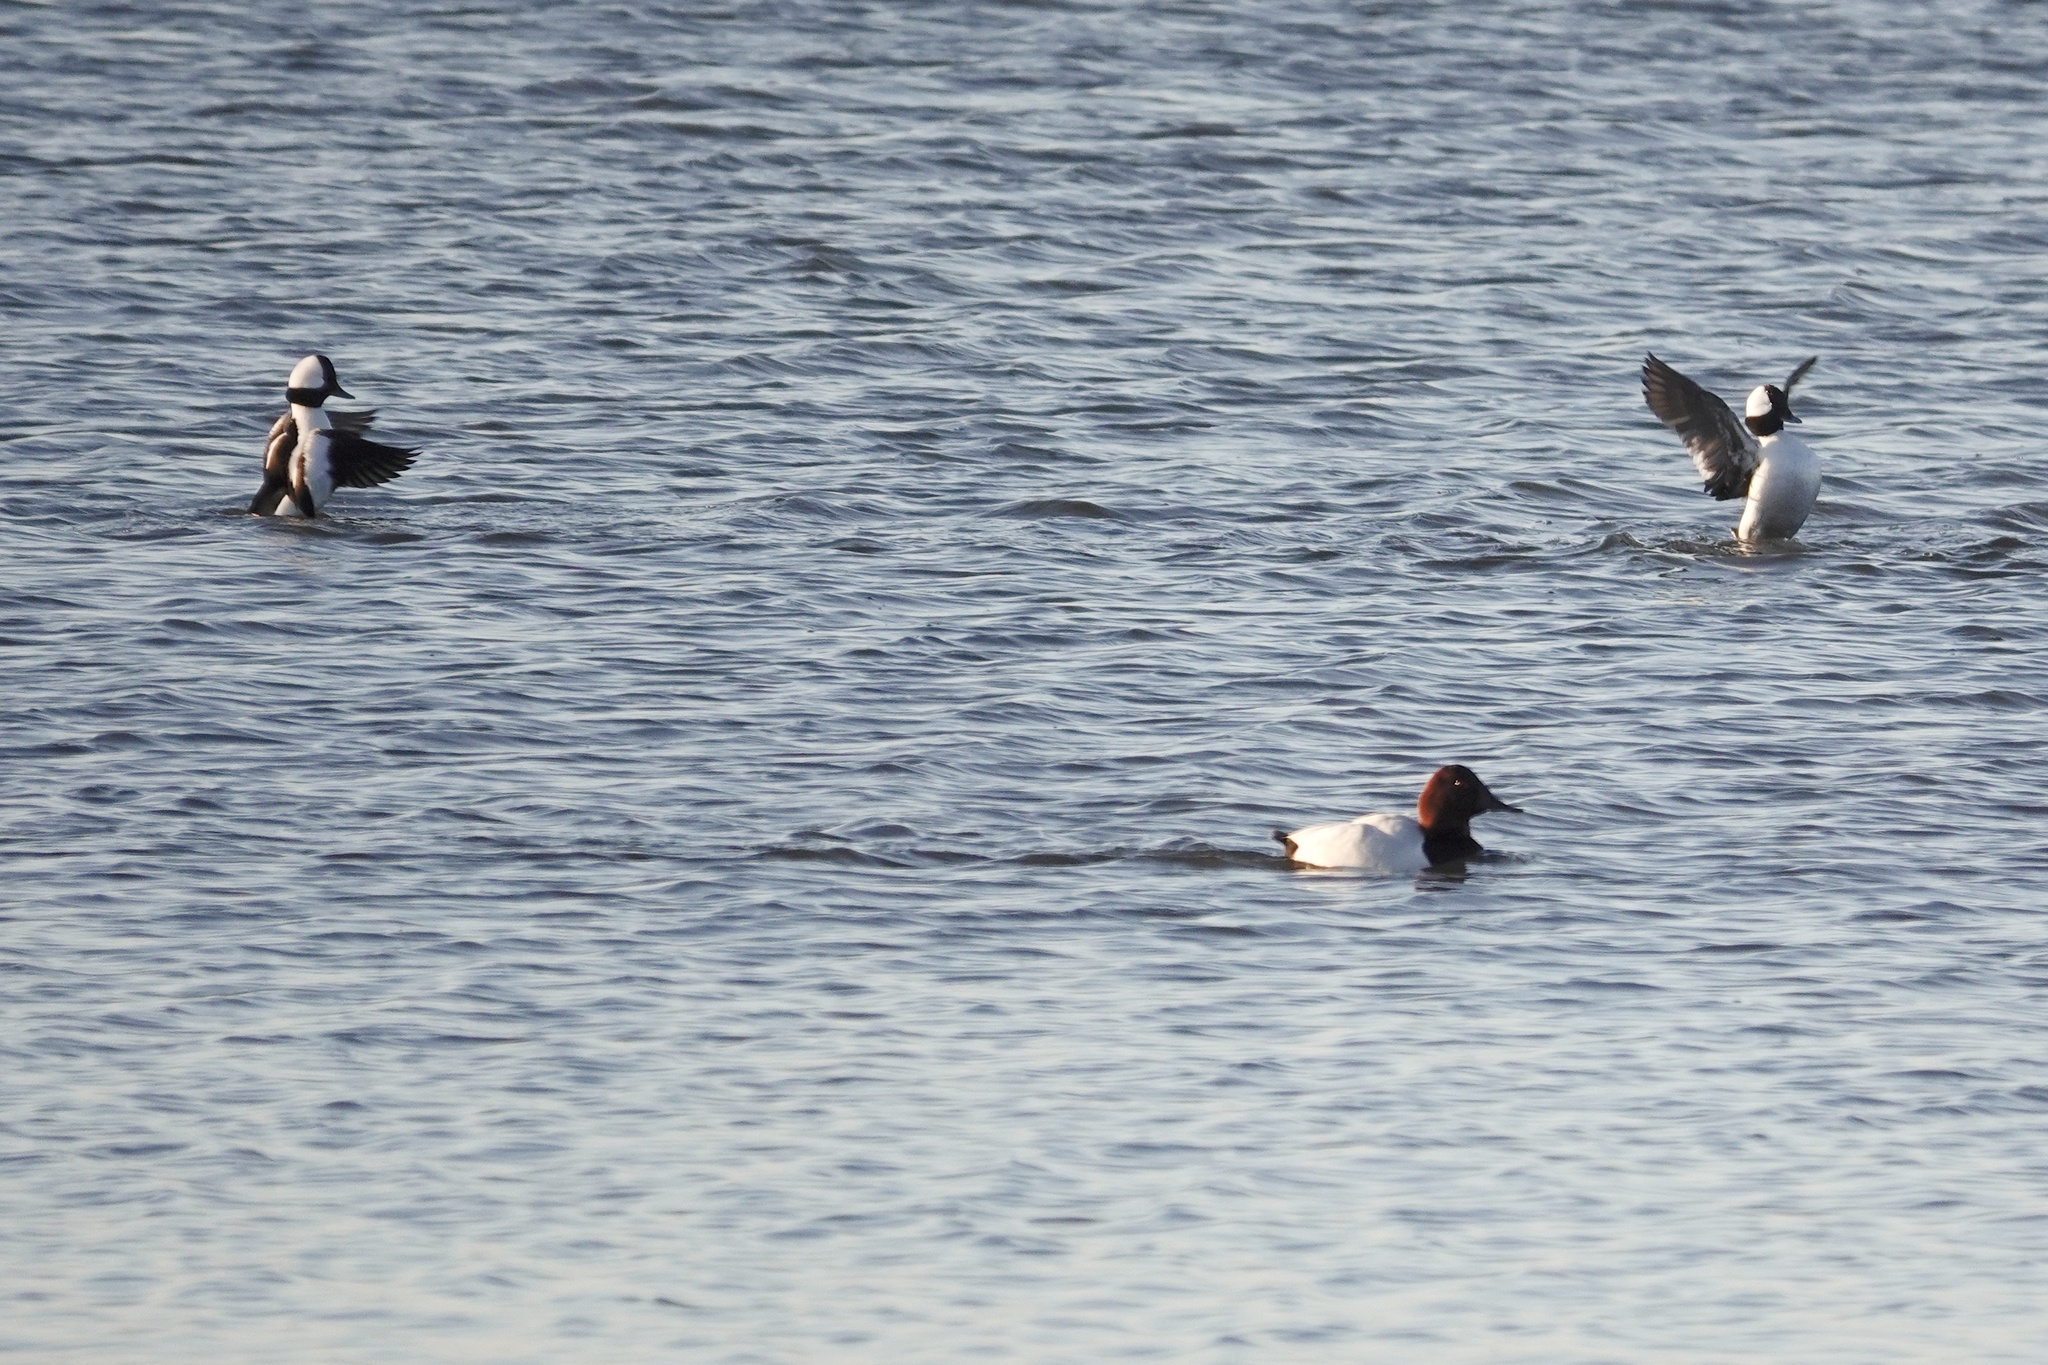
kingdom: Animalia
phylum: Chordata
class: Aves
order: Anseriformes
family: Anatidae
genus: Aythya
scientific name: Aythya valisineria
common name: Canvasback
